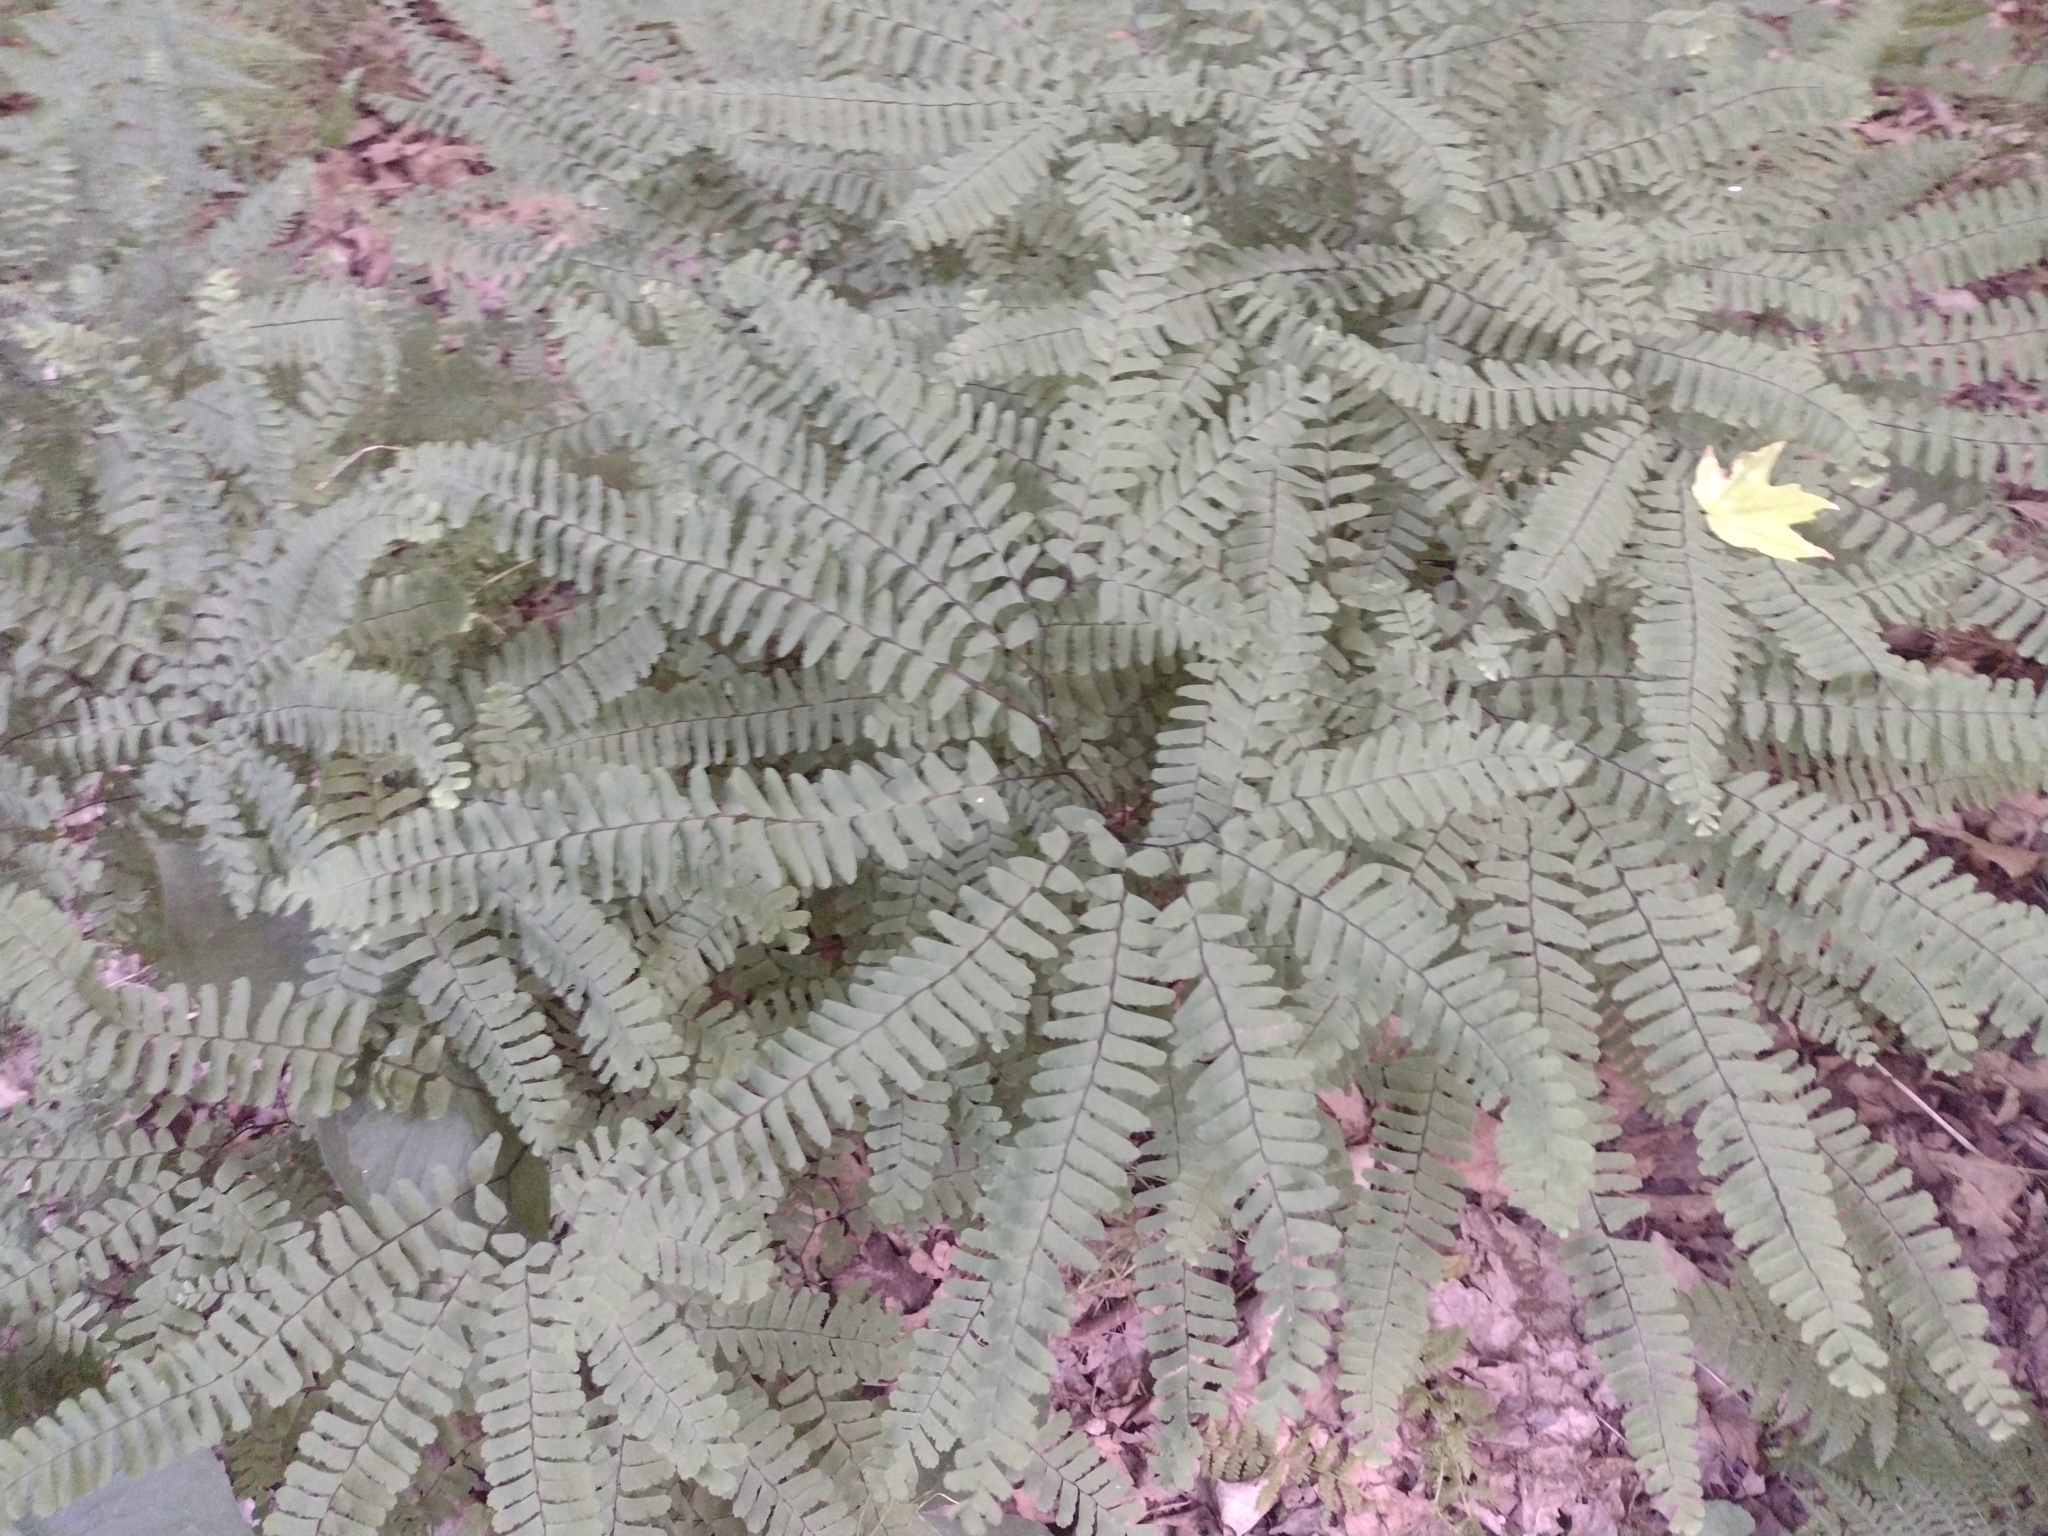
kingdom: Plantae
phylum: Tracheophyta
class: Polypodiopsida
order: Polypodiales
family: Pteridaceae
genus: Adiantum
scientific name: Adiantum pedatum
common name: Five-finger fern
